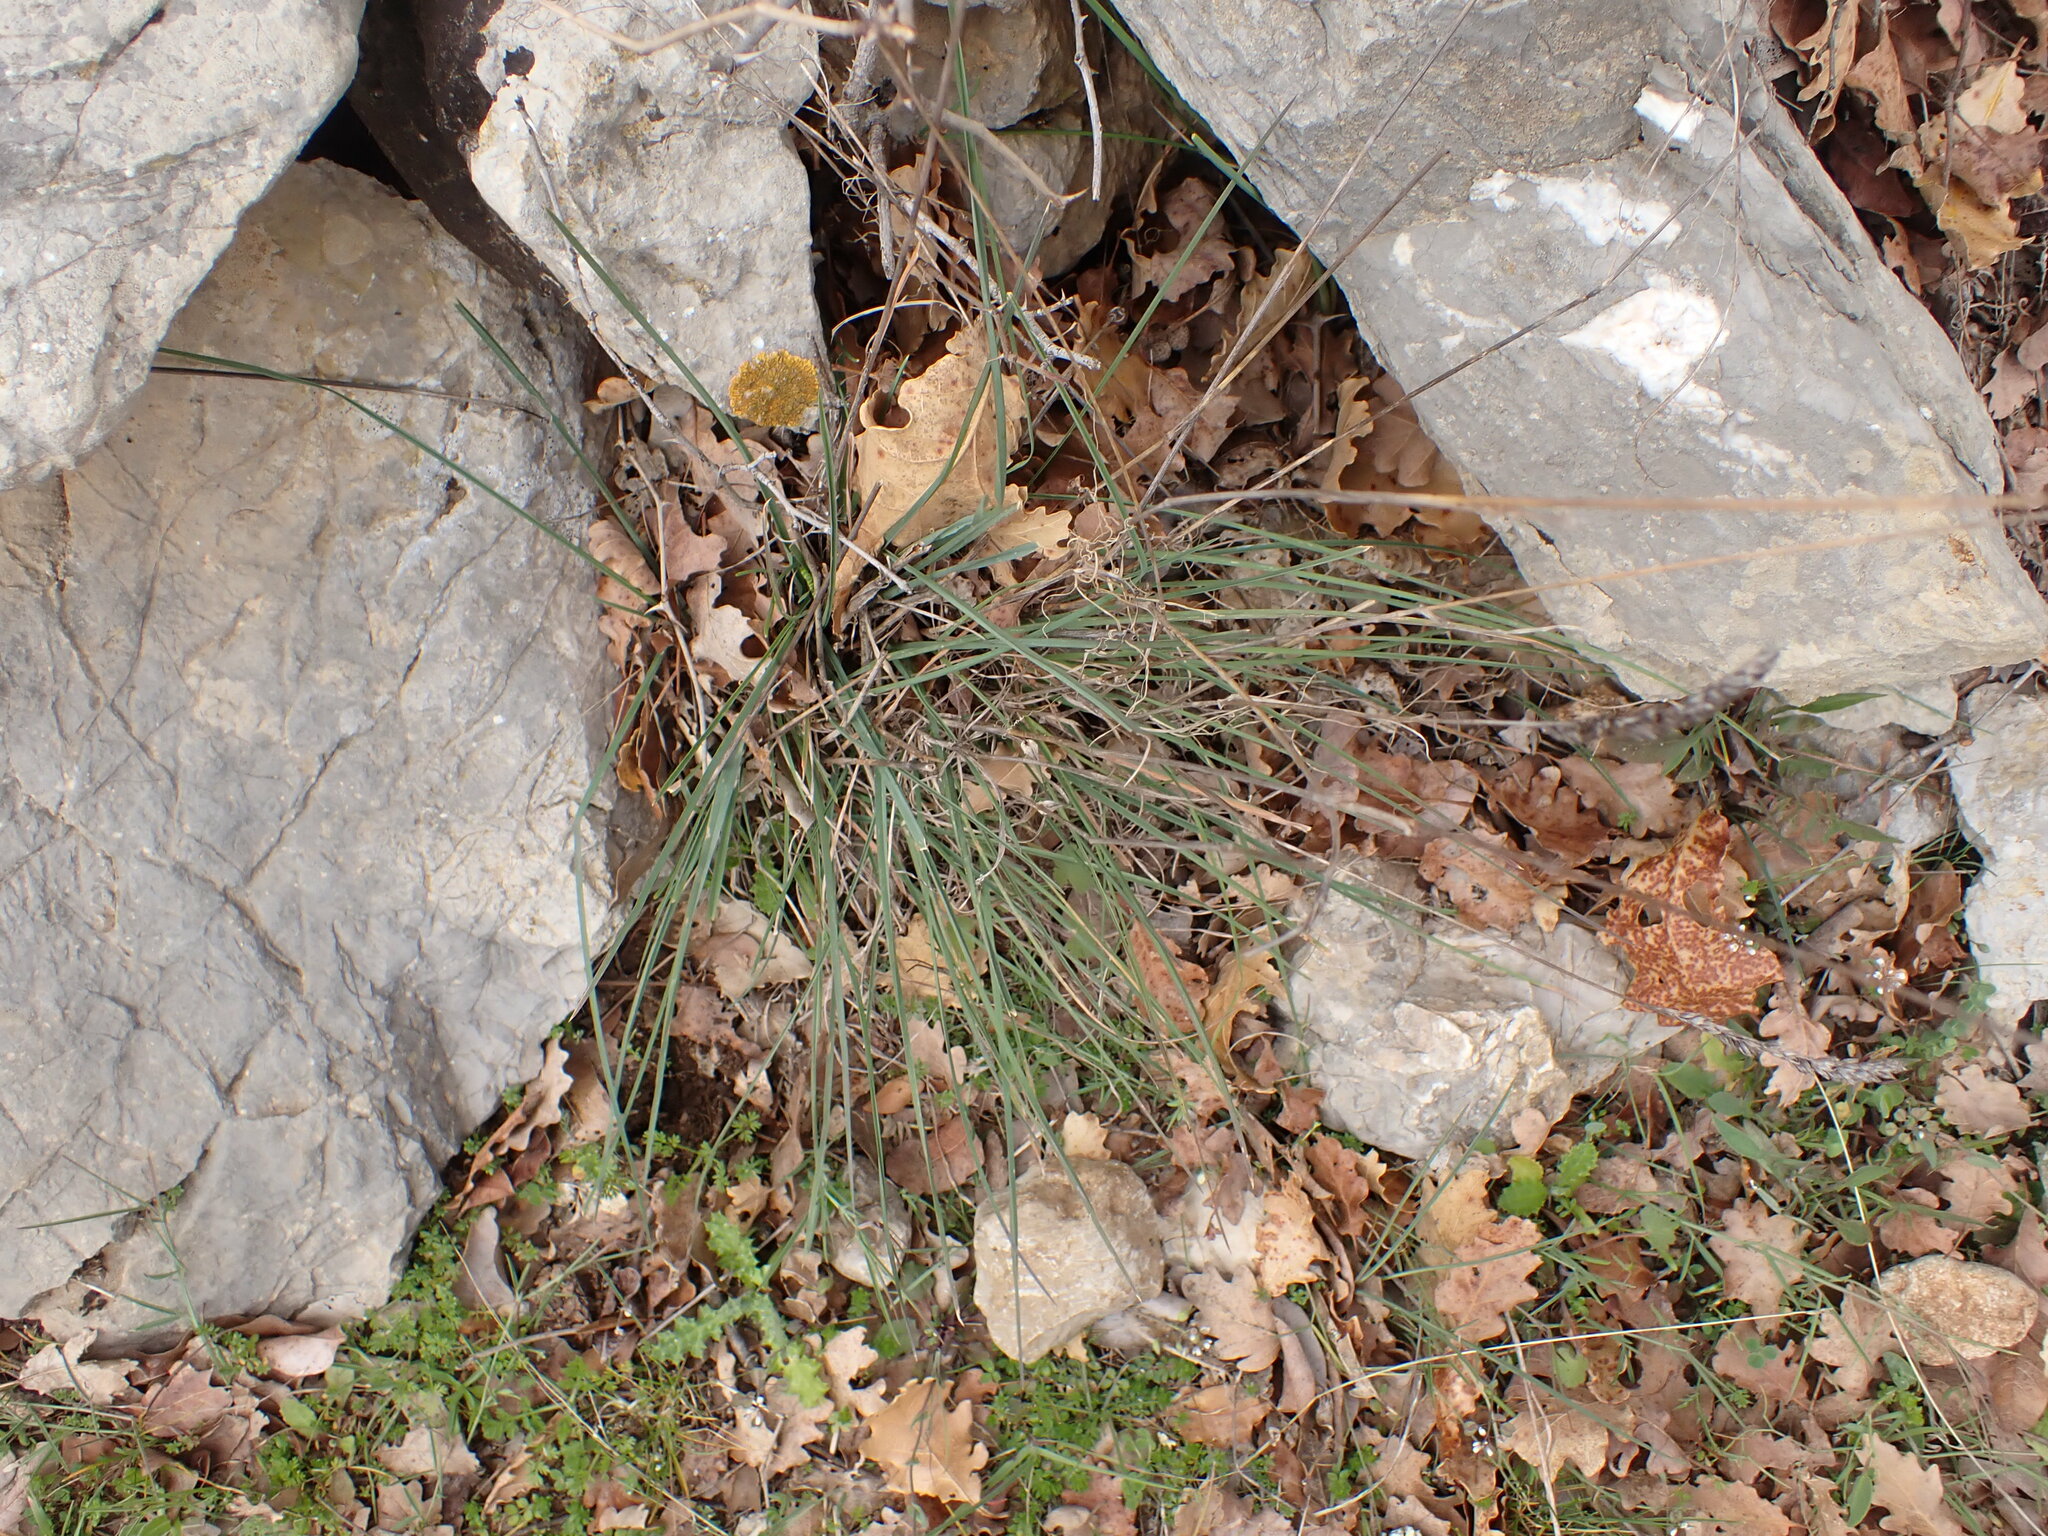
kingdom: Plantae
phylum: Tracheophyta
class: Liliopsida
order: Poales
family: Poaceae
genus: Dactylis
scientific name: Dactylis glomerata
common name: Orchardgrass
